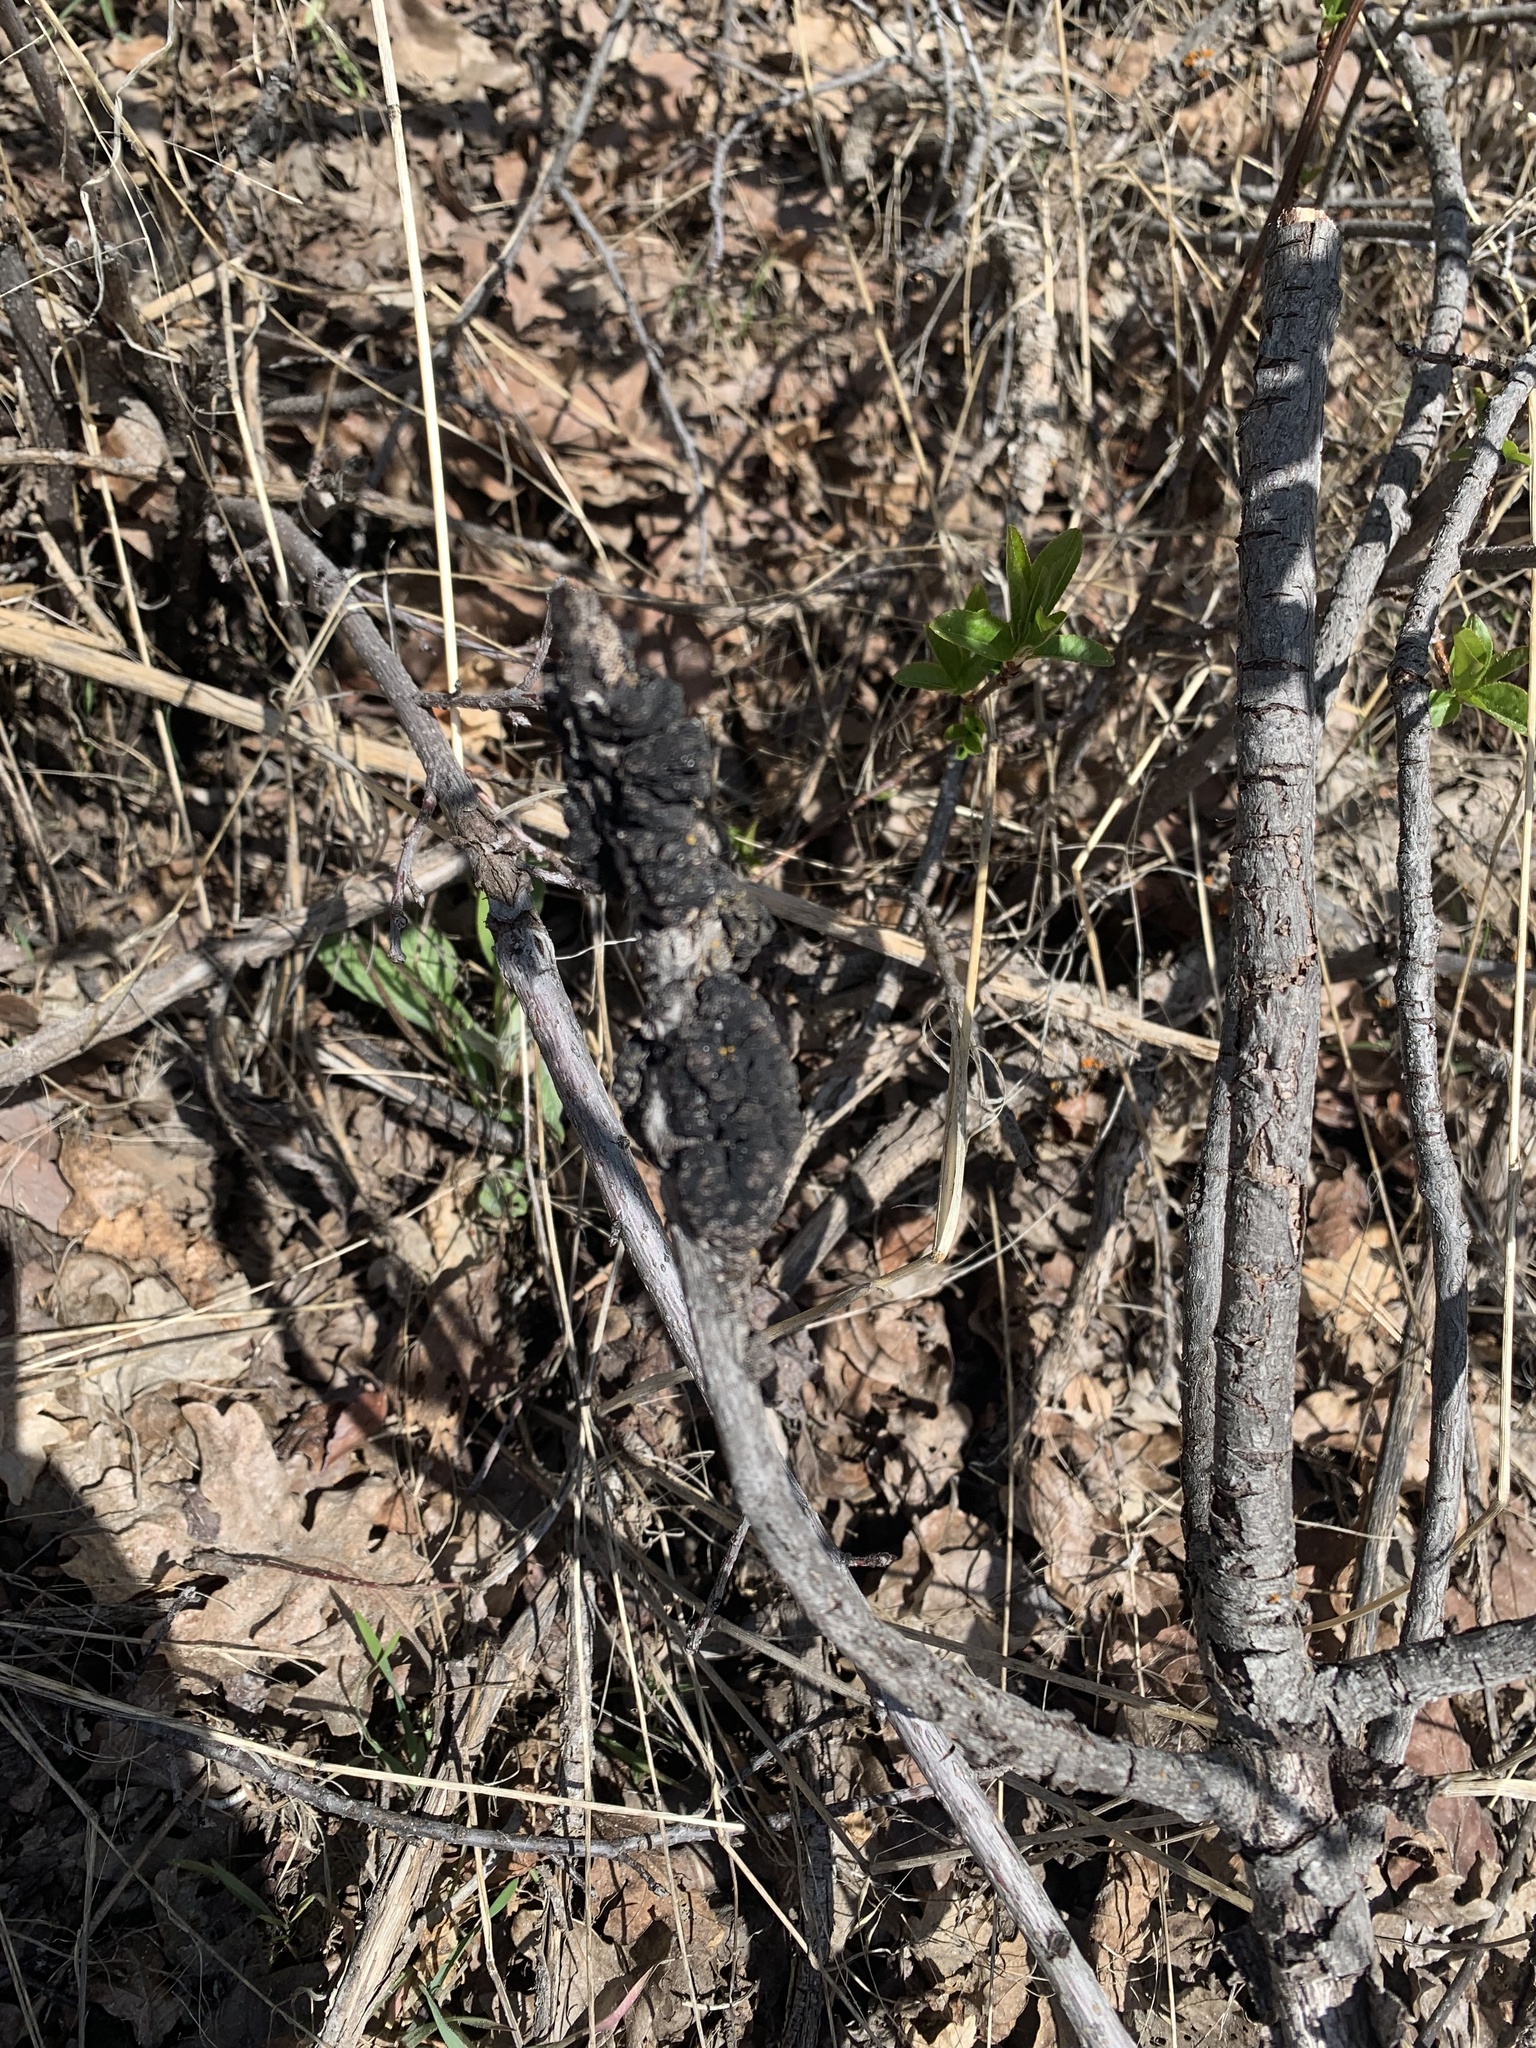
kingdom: Fungi
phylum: Ascomycota
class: Dothideomycetes
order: Venturiales
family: Venturiaceae
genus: Apiosporina
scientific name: Apiosporina morbosa
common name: Black knot
